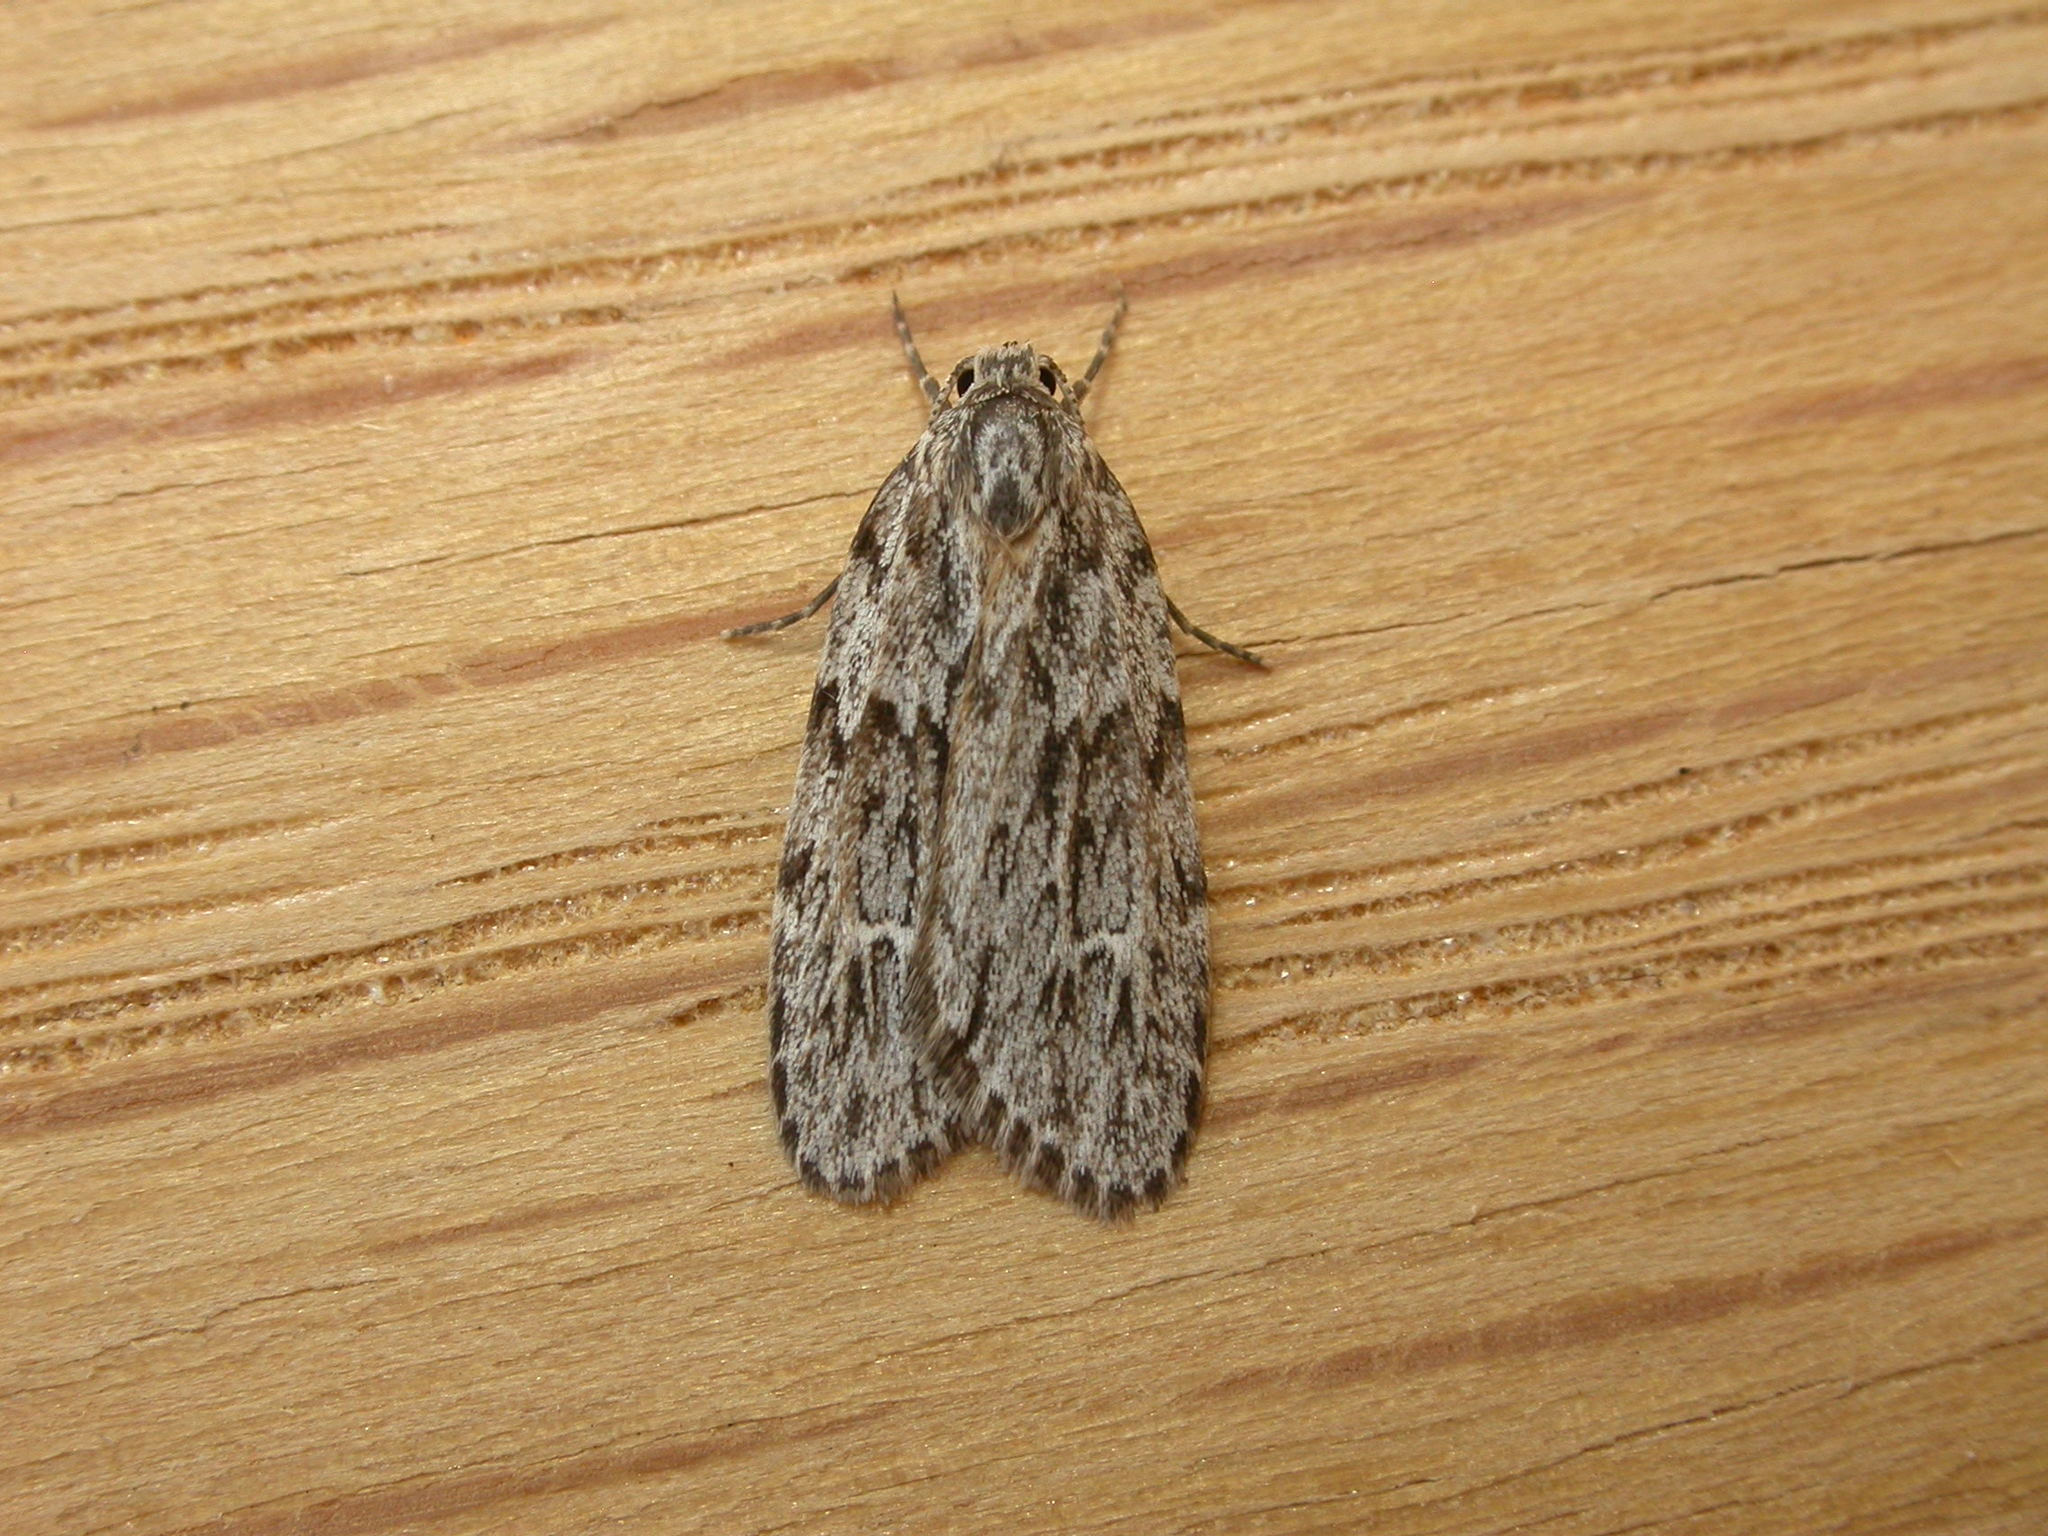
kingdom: Animalia
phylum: Arthropoda
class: Insecta
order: Lepidoptera
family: Erebidae
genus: Halone
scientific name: Halone servilis
